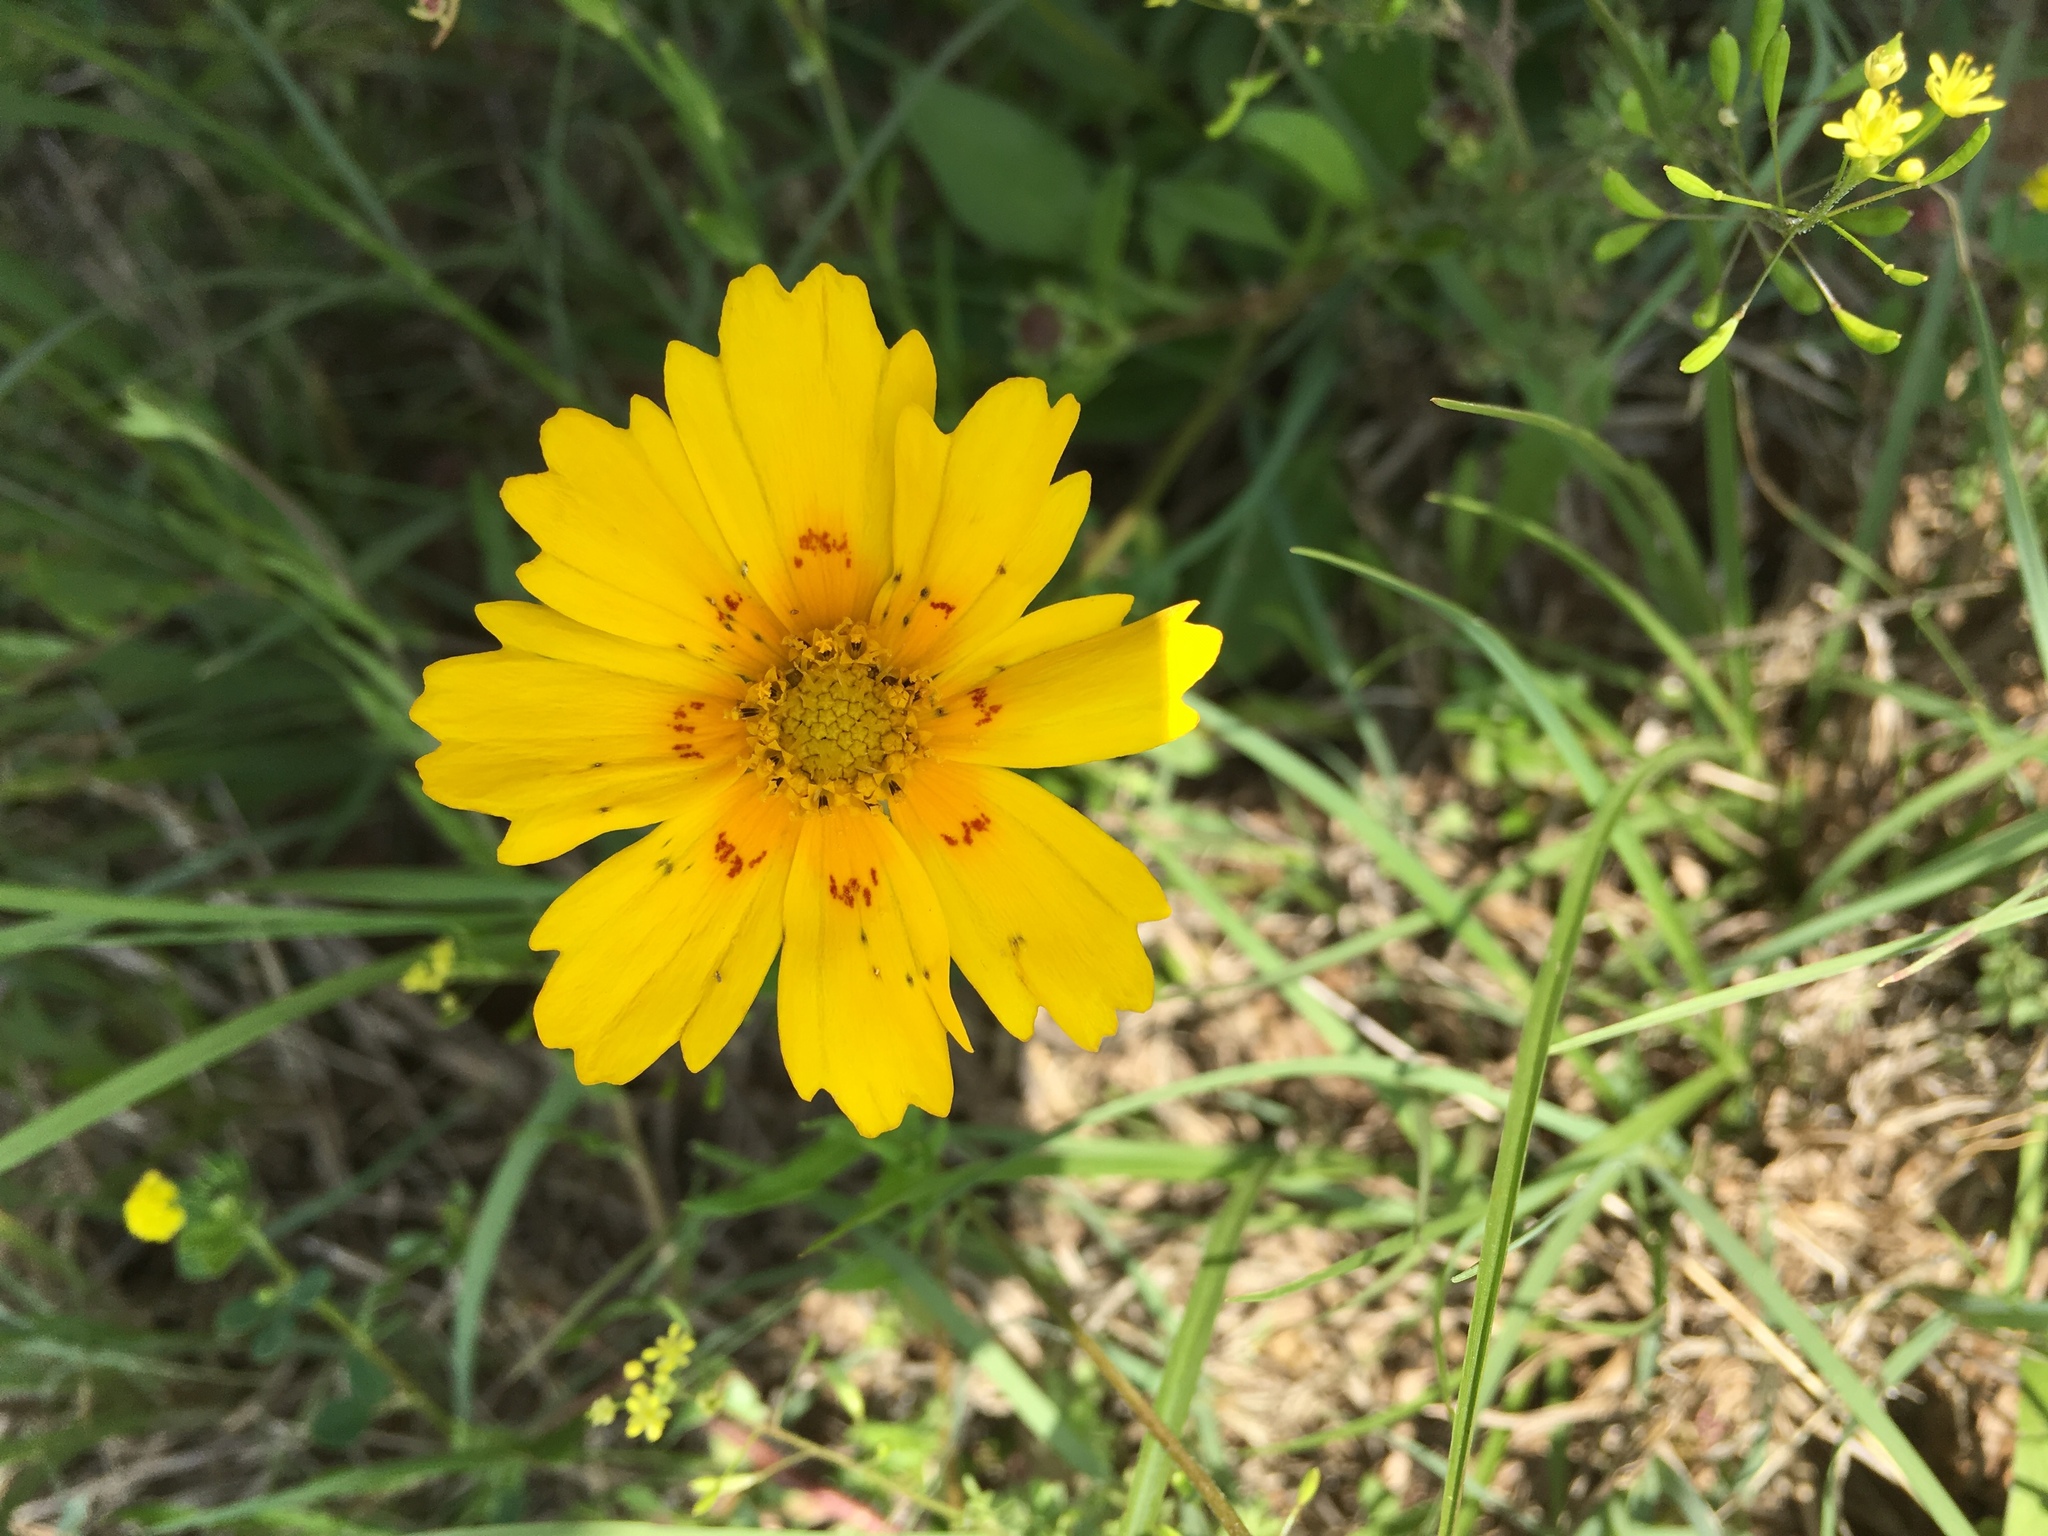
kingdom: Plantae
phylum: Tracheophyta
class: Magnoliopsida
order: Asterales
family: Asteraceae
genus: Coreopsis
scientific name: Coreopsis nuecensis
